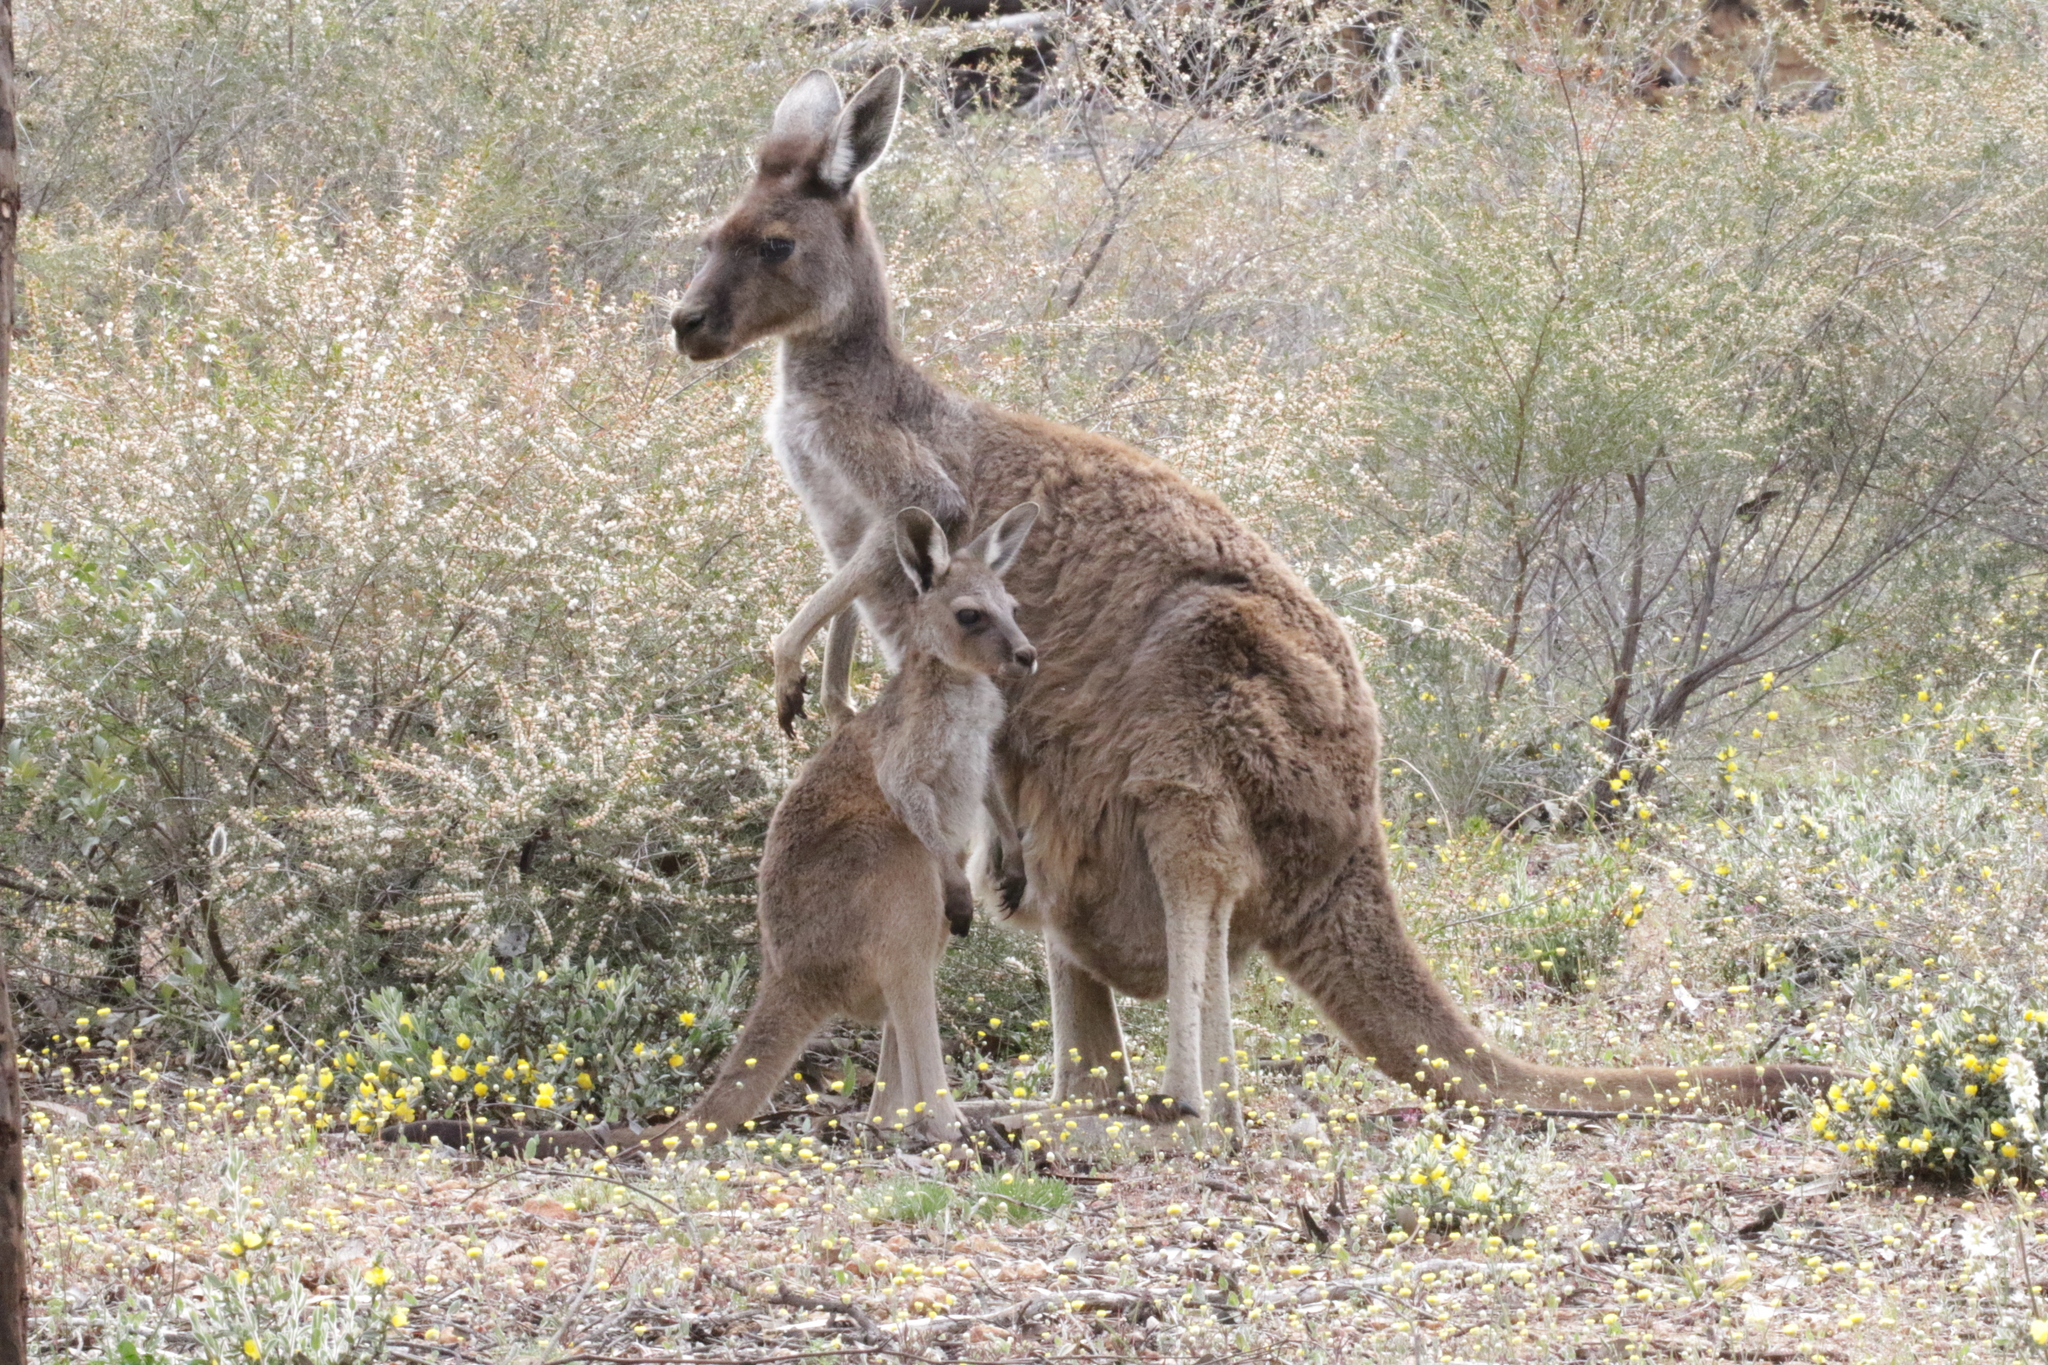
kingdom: Animalia
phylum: Chordata
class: Mammalia
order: Diprotodontia
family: Macropodidae
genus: Macropus
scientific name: Macropus fuliginosus
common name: Western grey kangaroo
